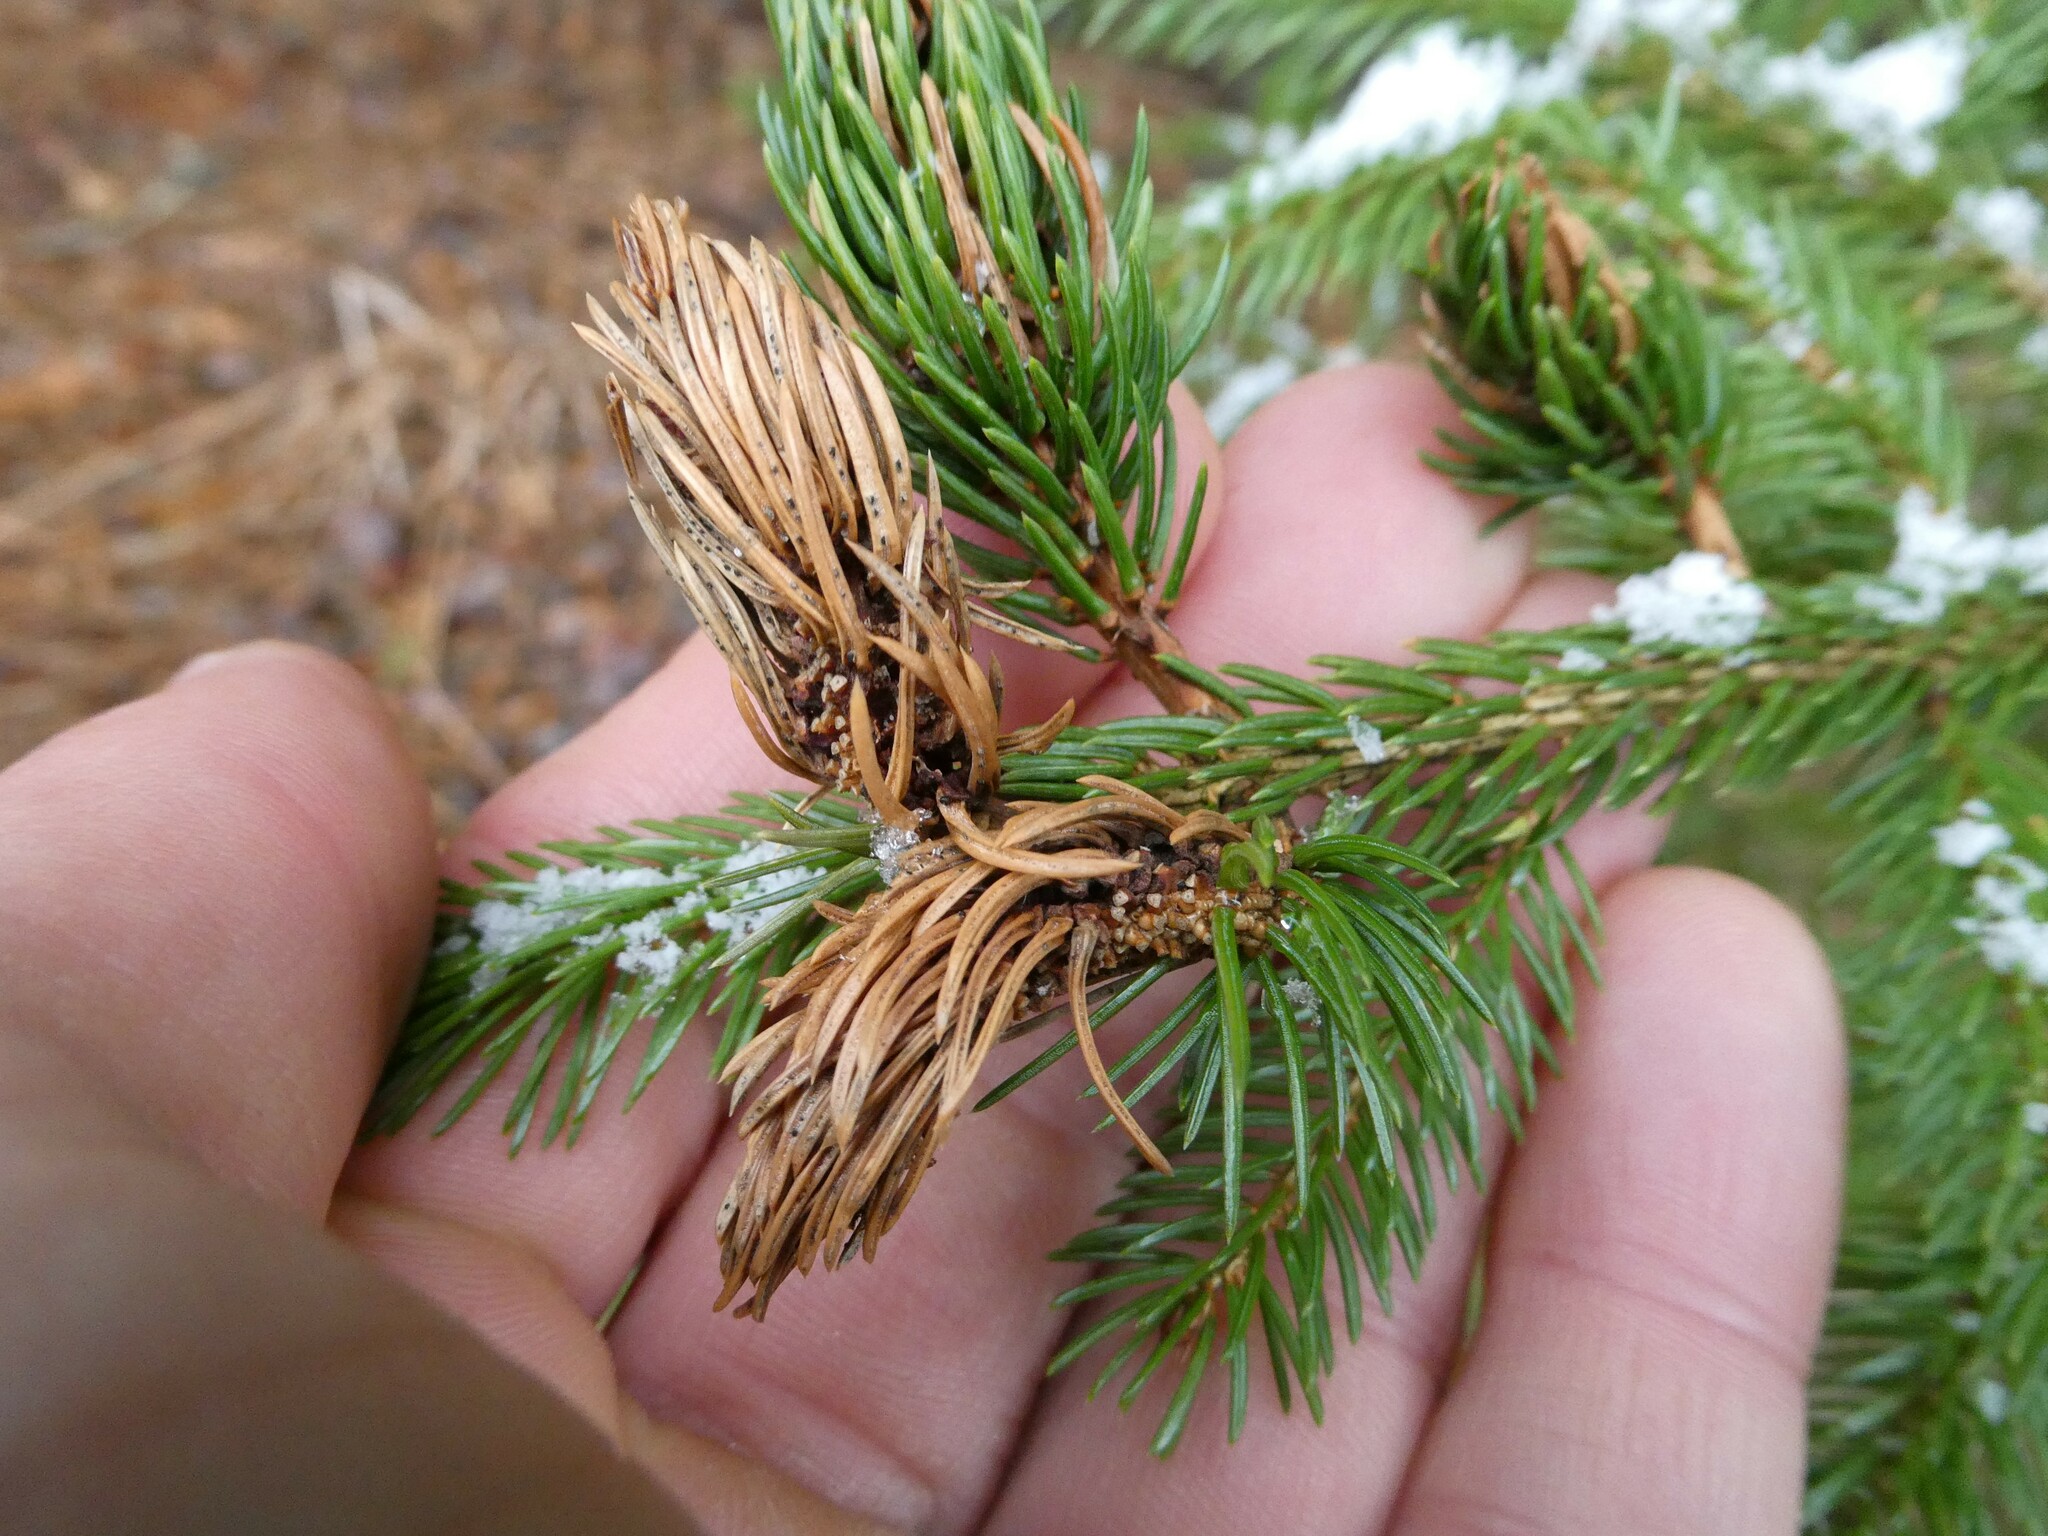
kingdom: Animalia
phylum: Arthropoda
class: Insecta
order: Hemiptera
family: Adelgidae
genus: Adelges
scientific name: Adelges abietis
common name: Eastern spruce gall adelgid
